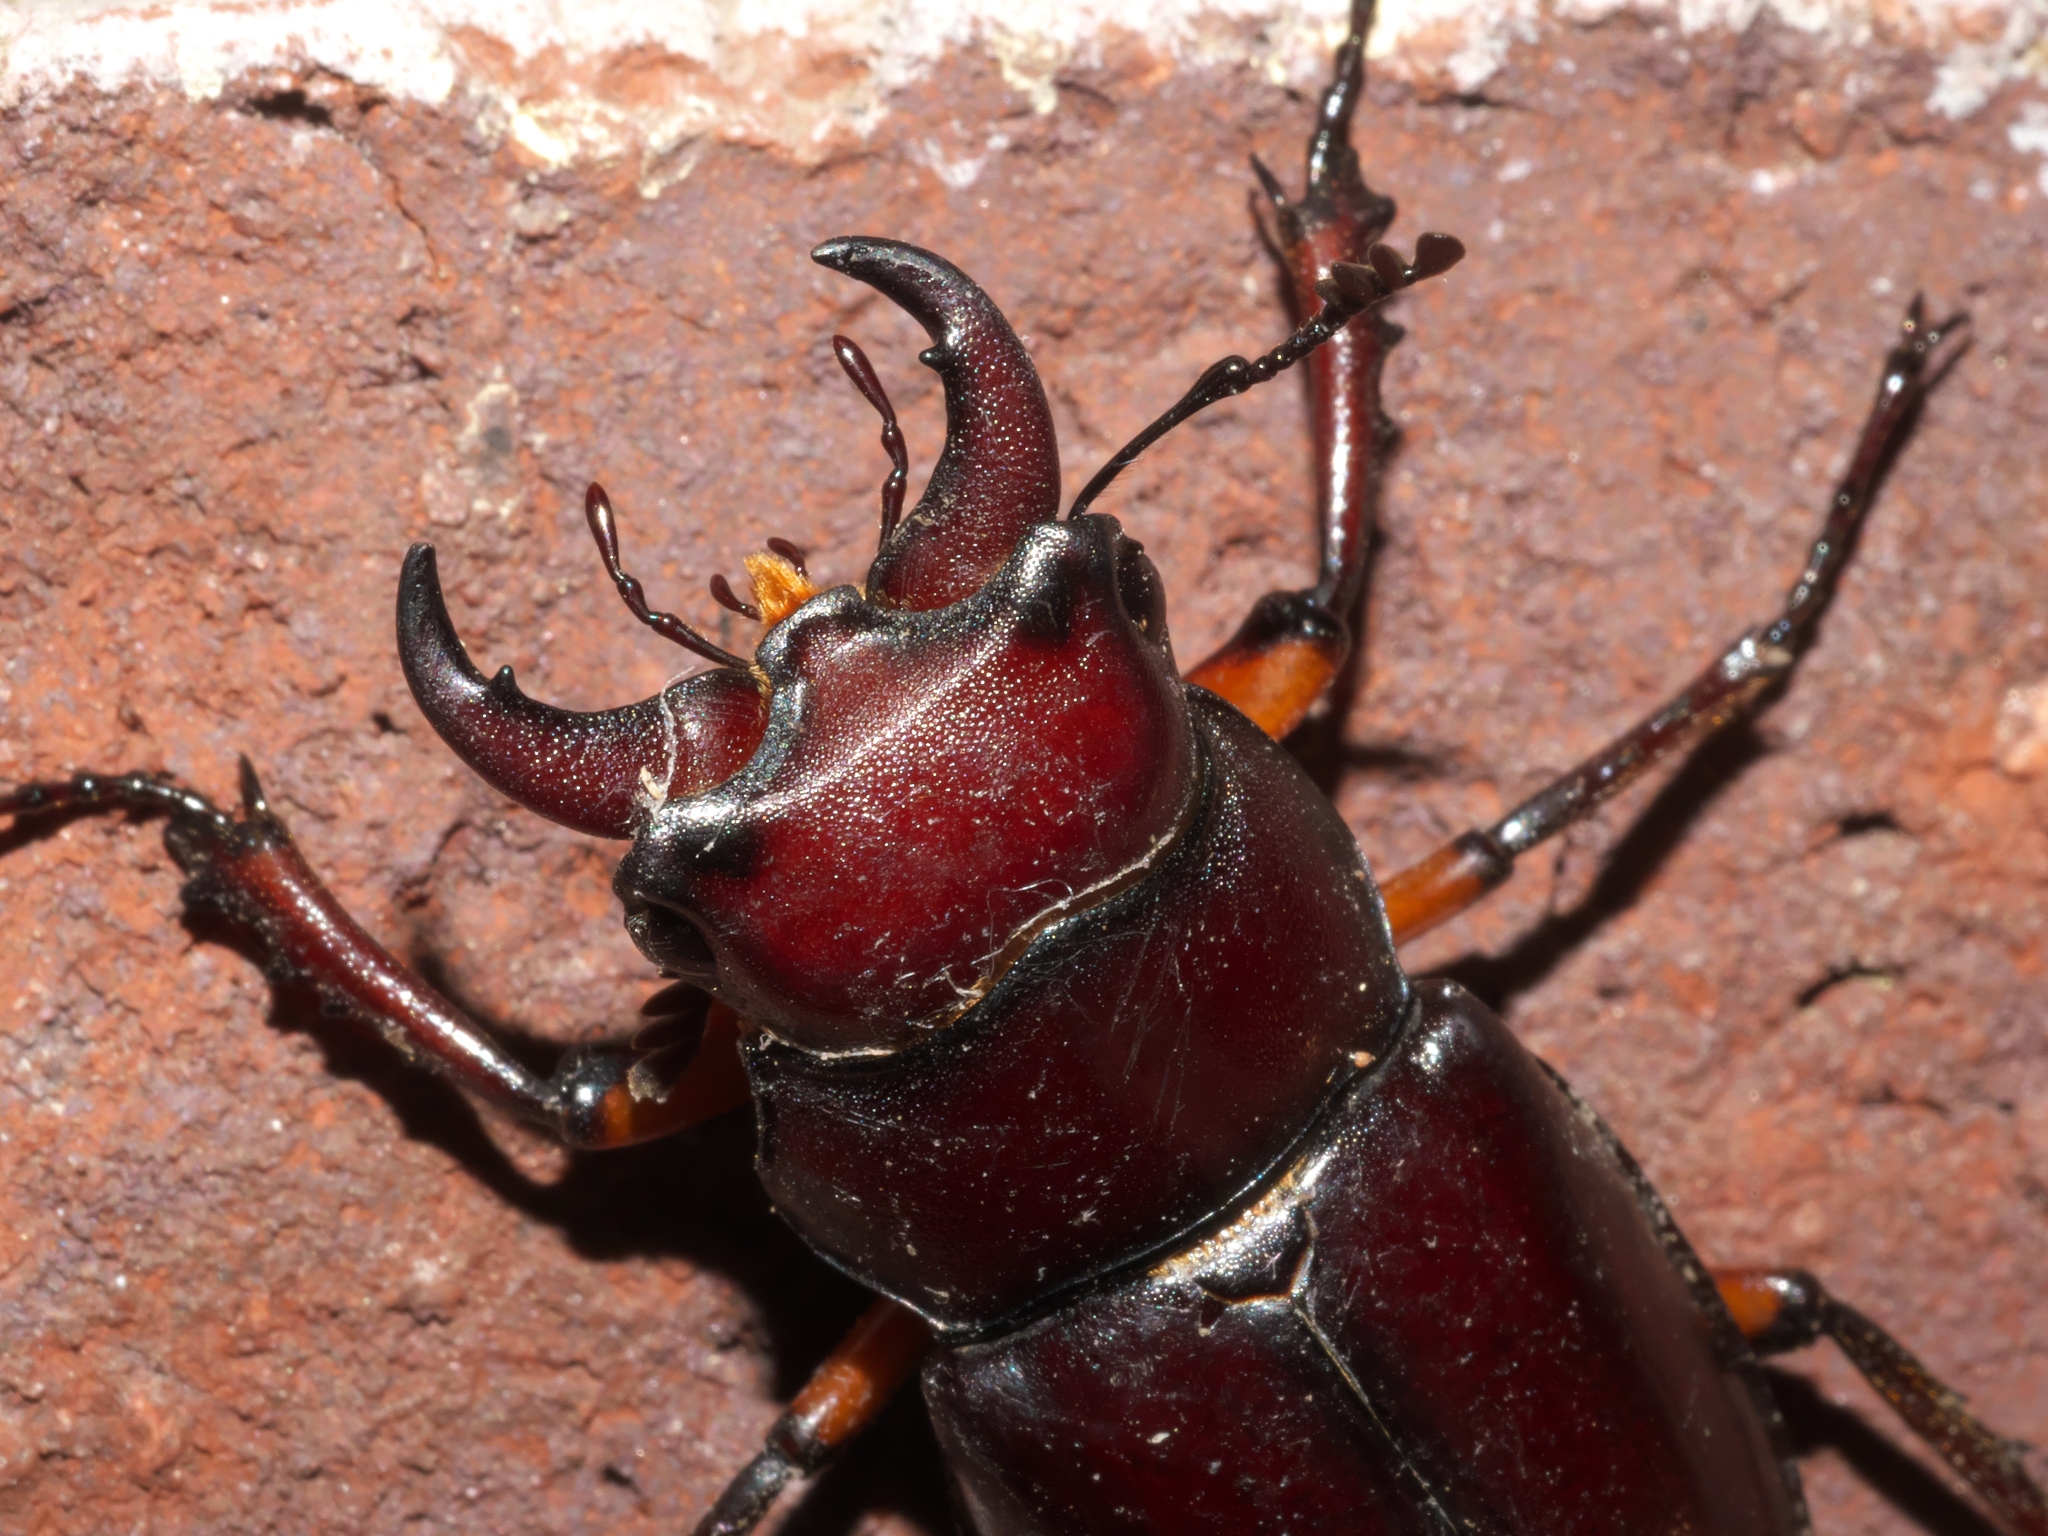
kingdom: Animalia
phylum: Arthropoda
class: Insecta
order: Coleoptera
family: Lucanidae
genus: Lucanus
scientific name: Lucanus capreolus
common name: Stag beetle
